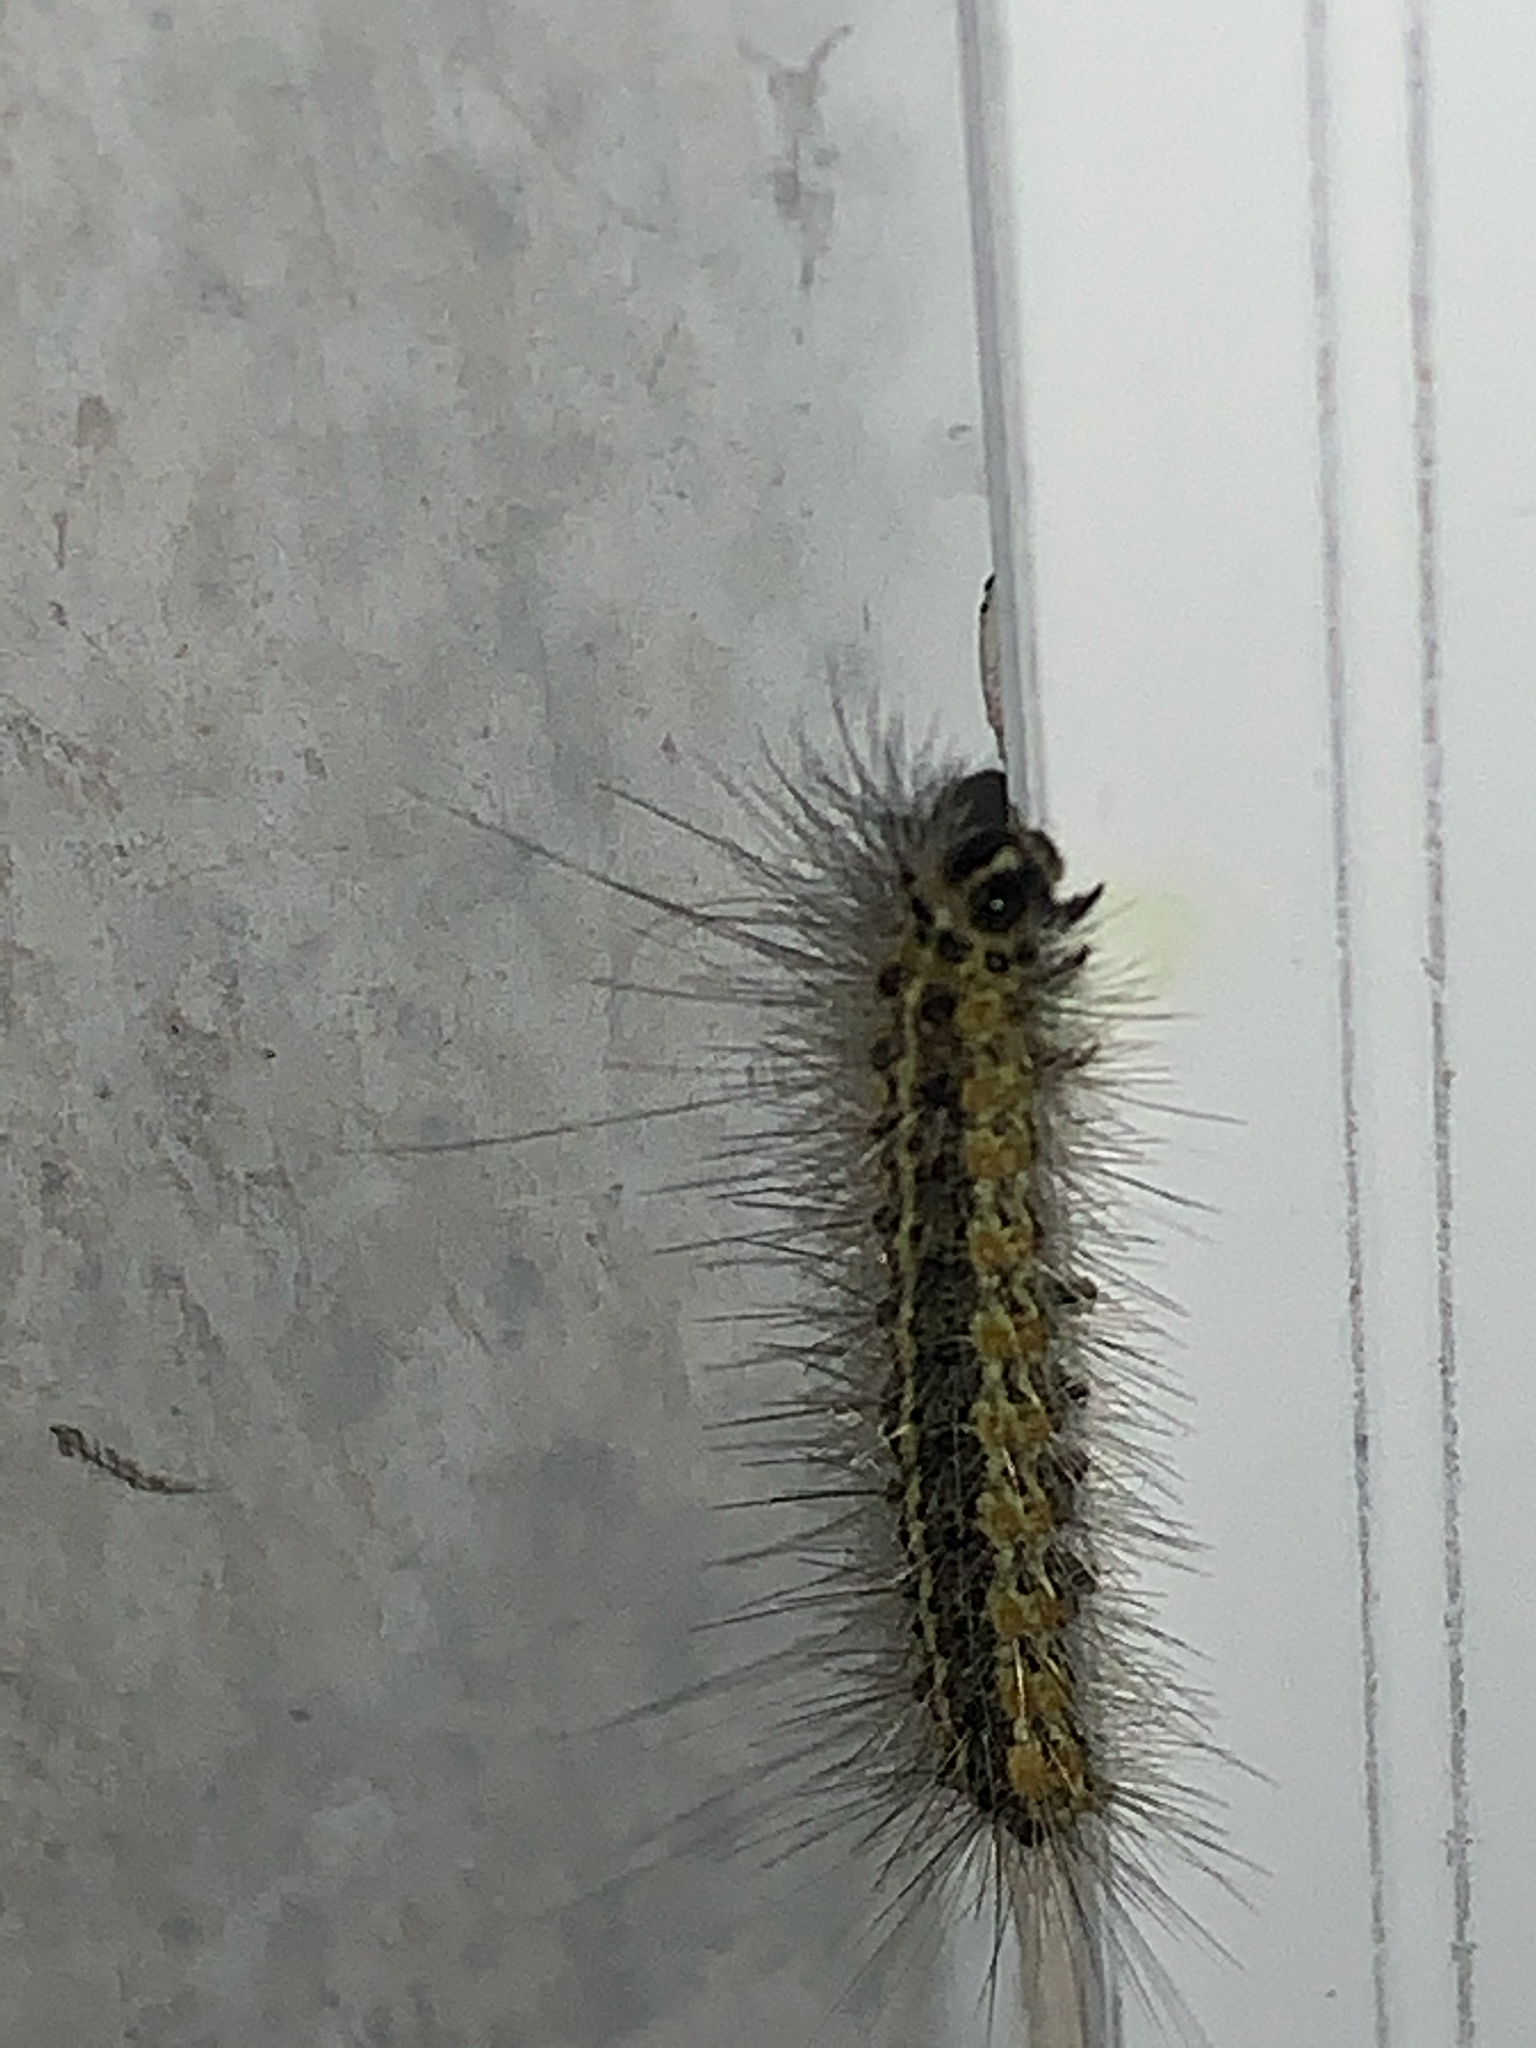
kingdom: Animalia
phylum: Arthropoda
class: Insecta
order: Lepidoptera
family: Erebidae
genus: Estigmene
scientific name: Estigmene acrea
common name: Salt marsh moth
